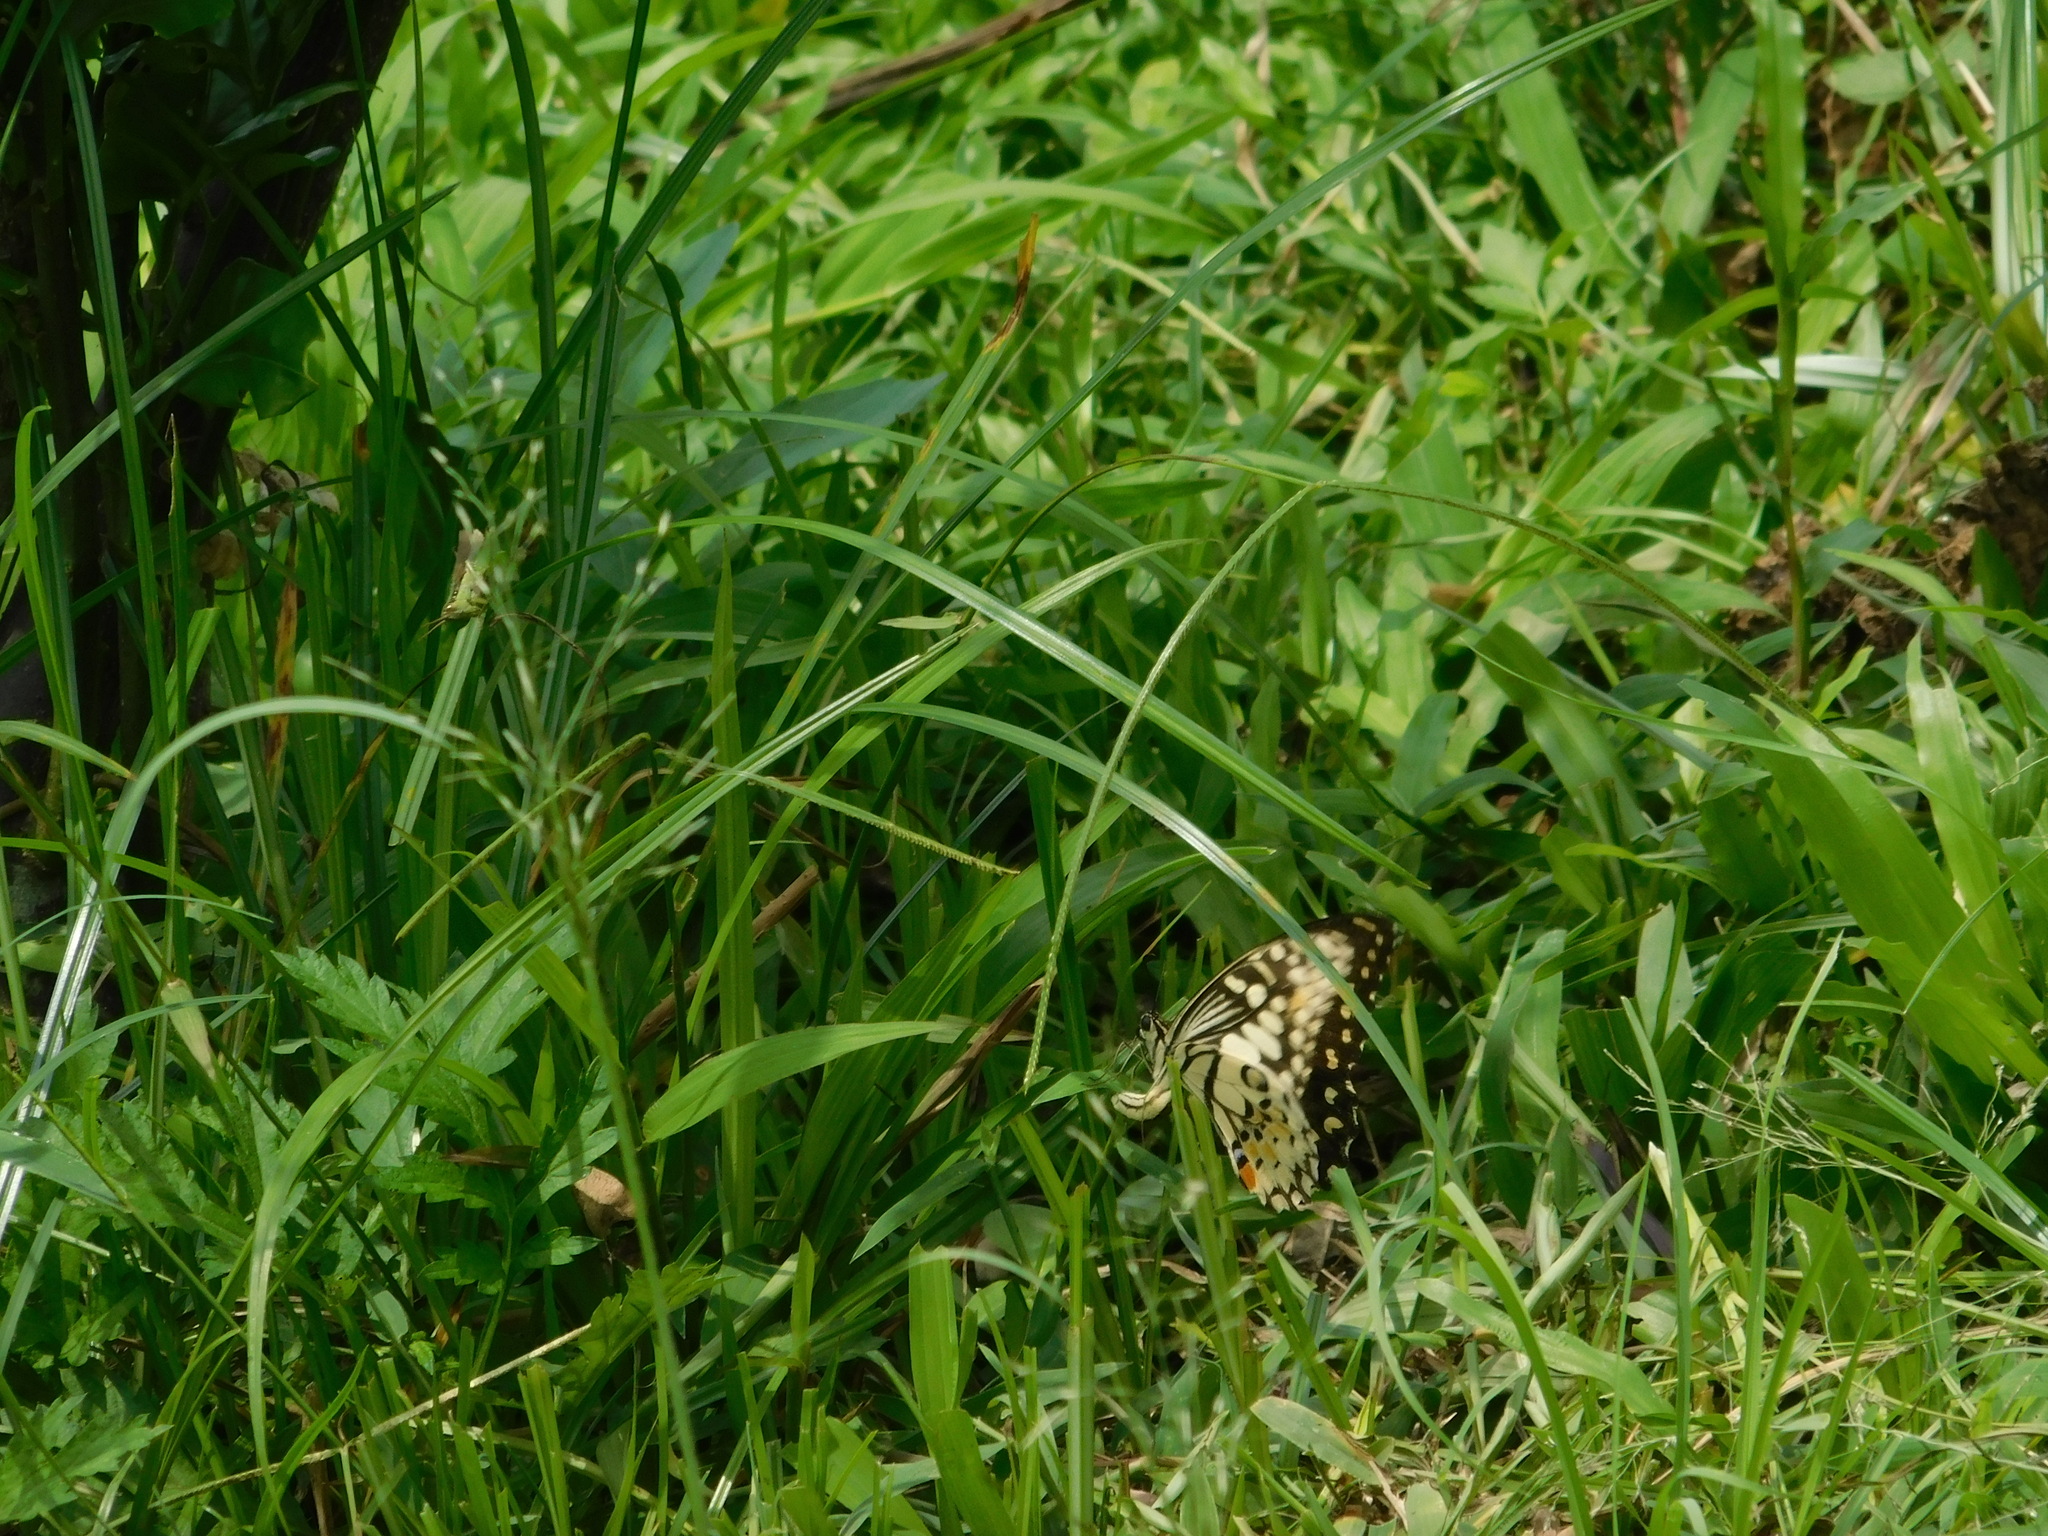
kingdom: Animalia
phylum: Arthropoda
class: Insecta
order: Lepidoptera
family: Papilionidae
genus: Papilio
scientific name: Papilio demoleus
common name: Lime butterfly
